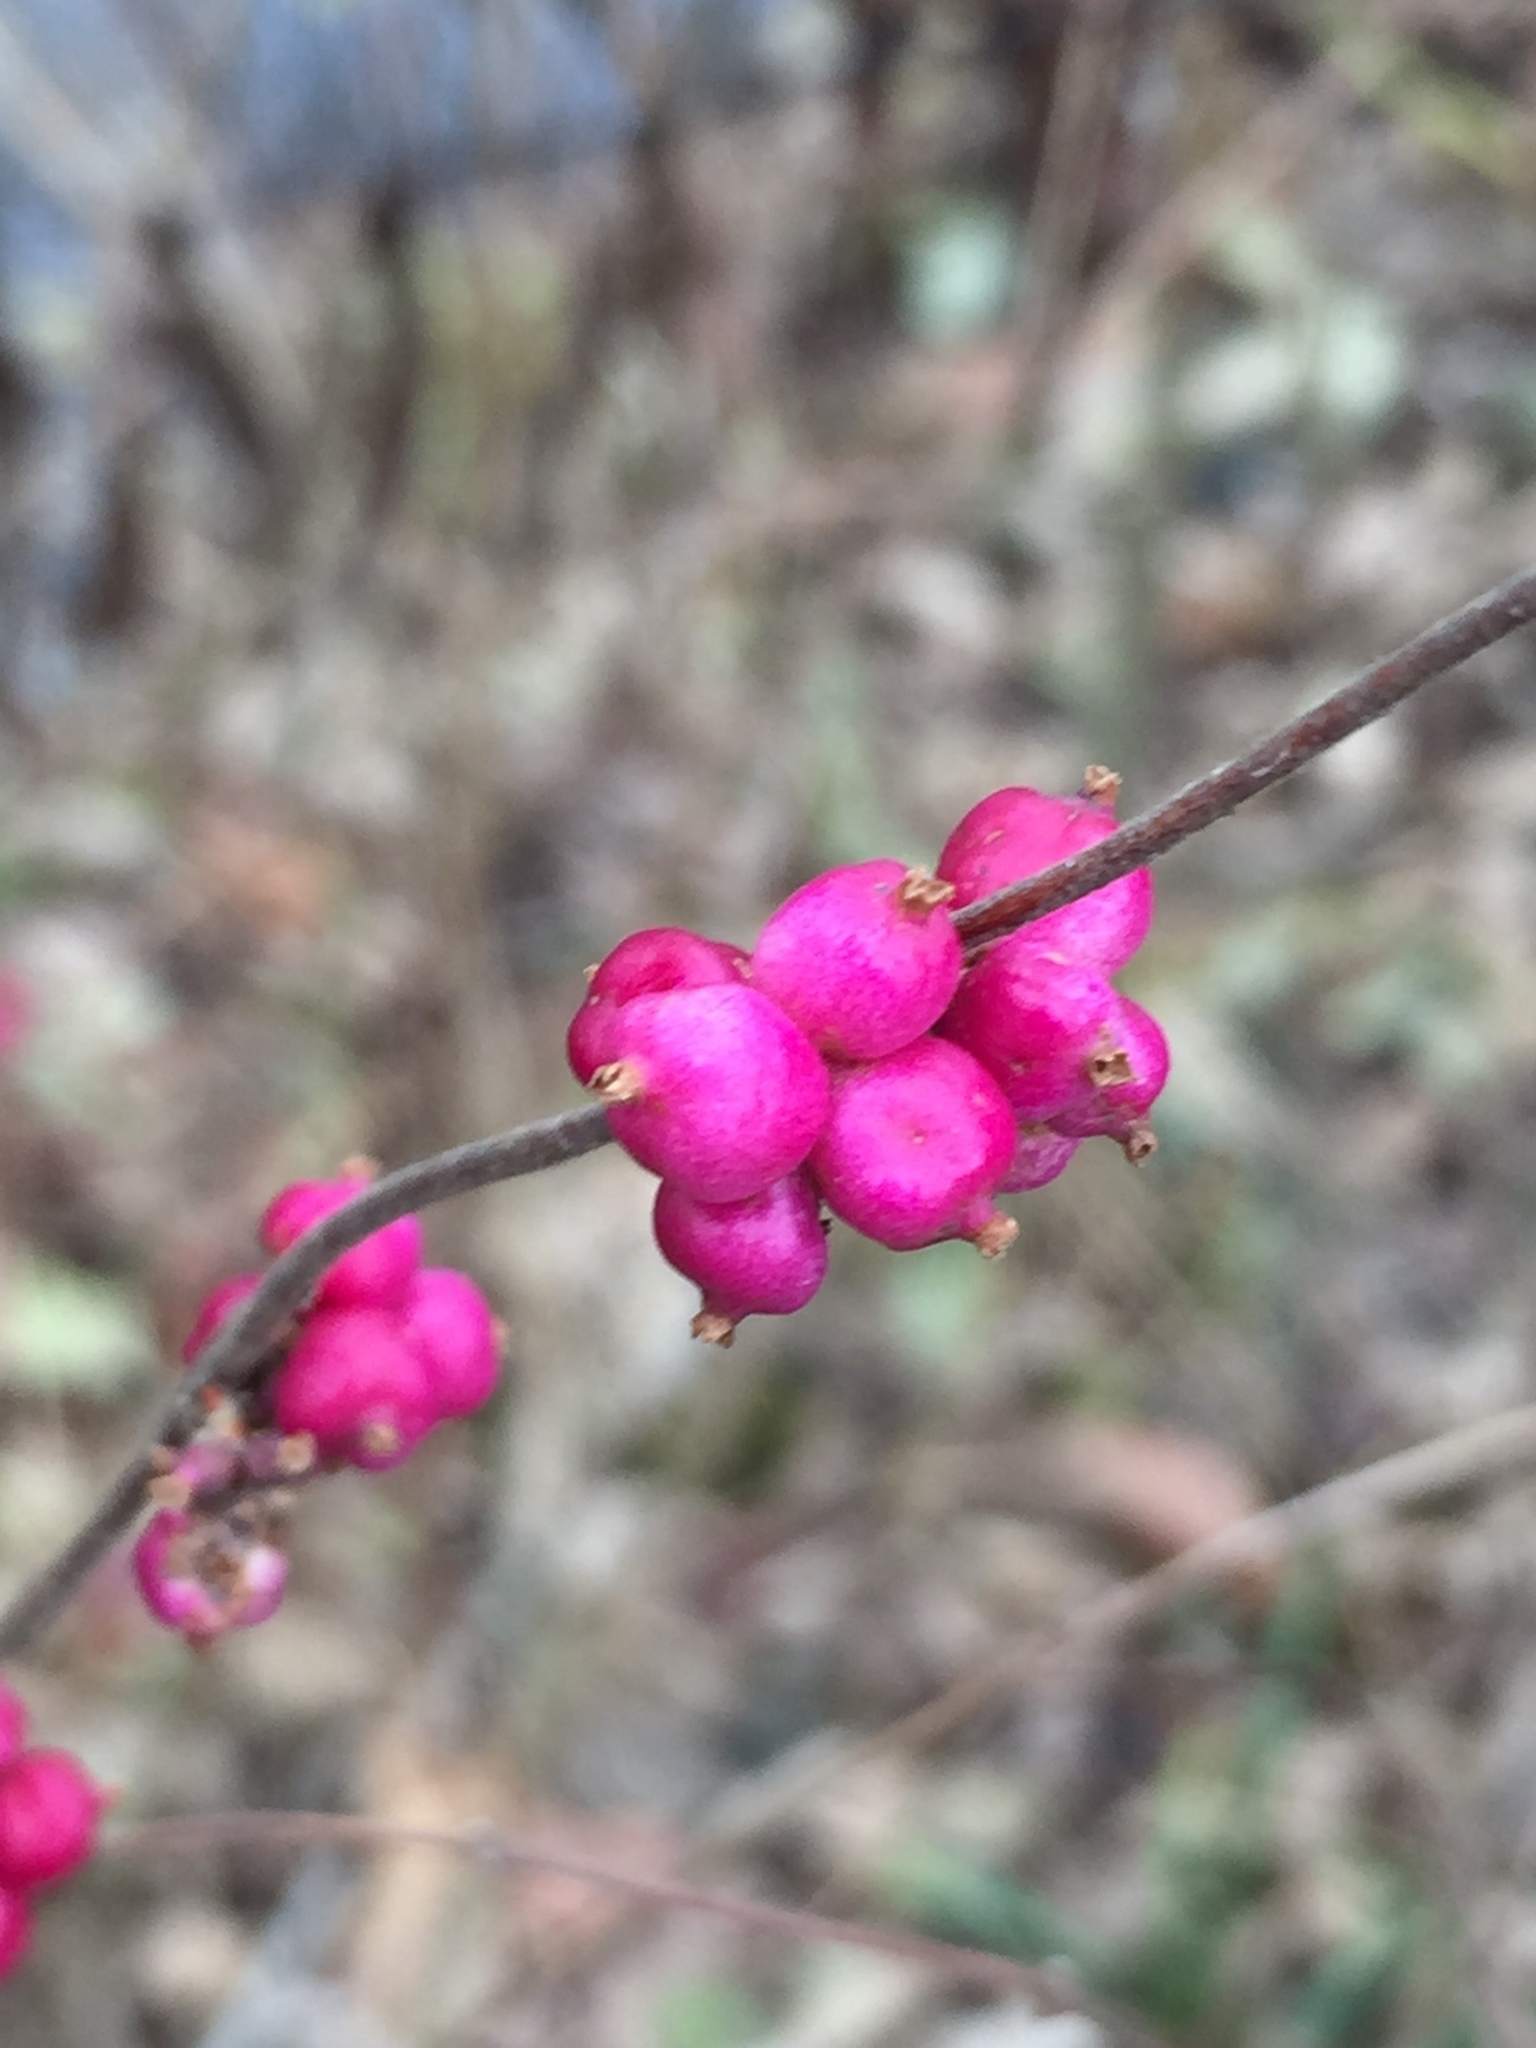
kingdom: Plantae
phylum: Tracheophyta
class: Magnoliopsida
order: Dipsacales
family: Caprifoliaceae
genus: Symphoricarpos
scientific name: Symphoricarpos orbiculatus
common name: Coralberry
